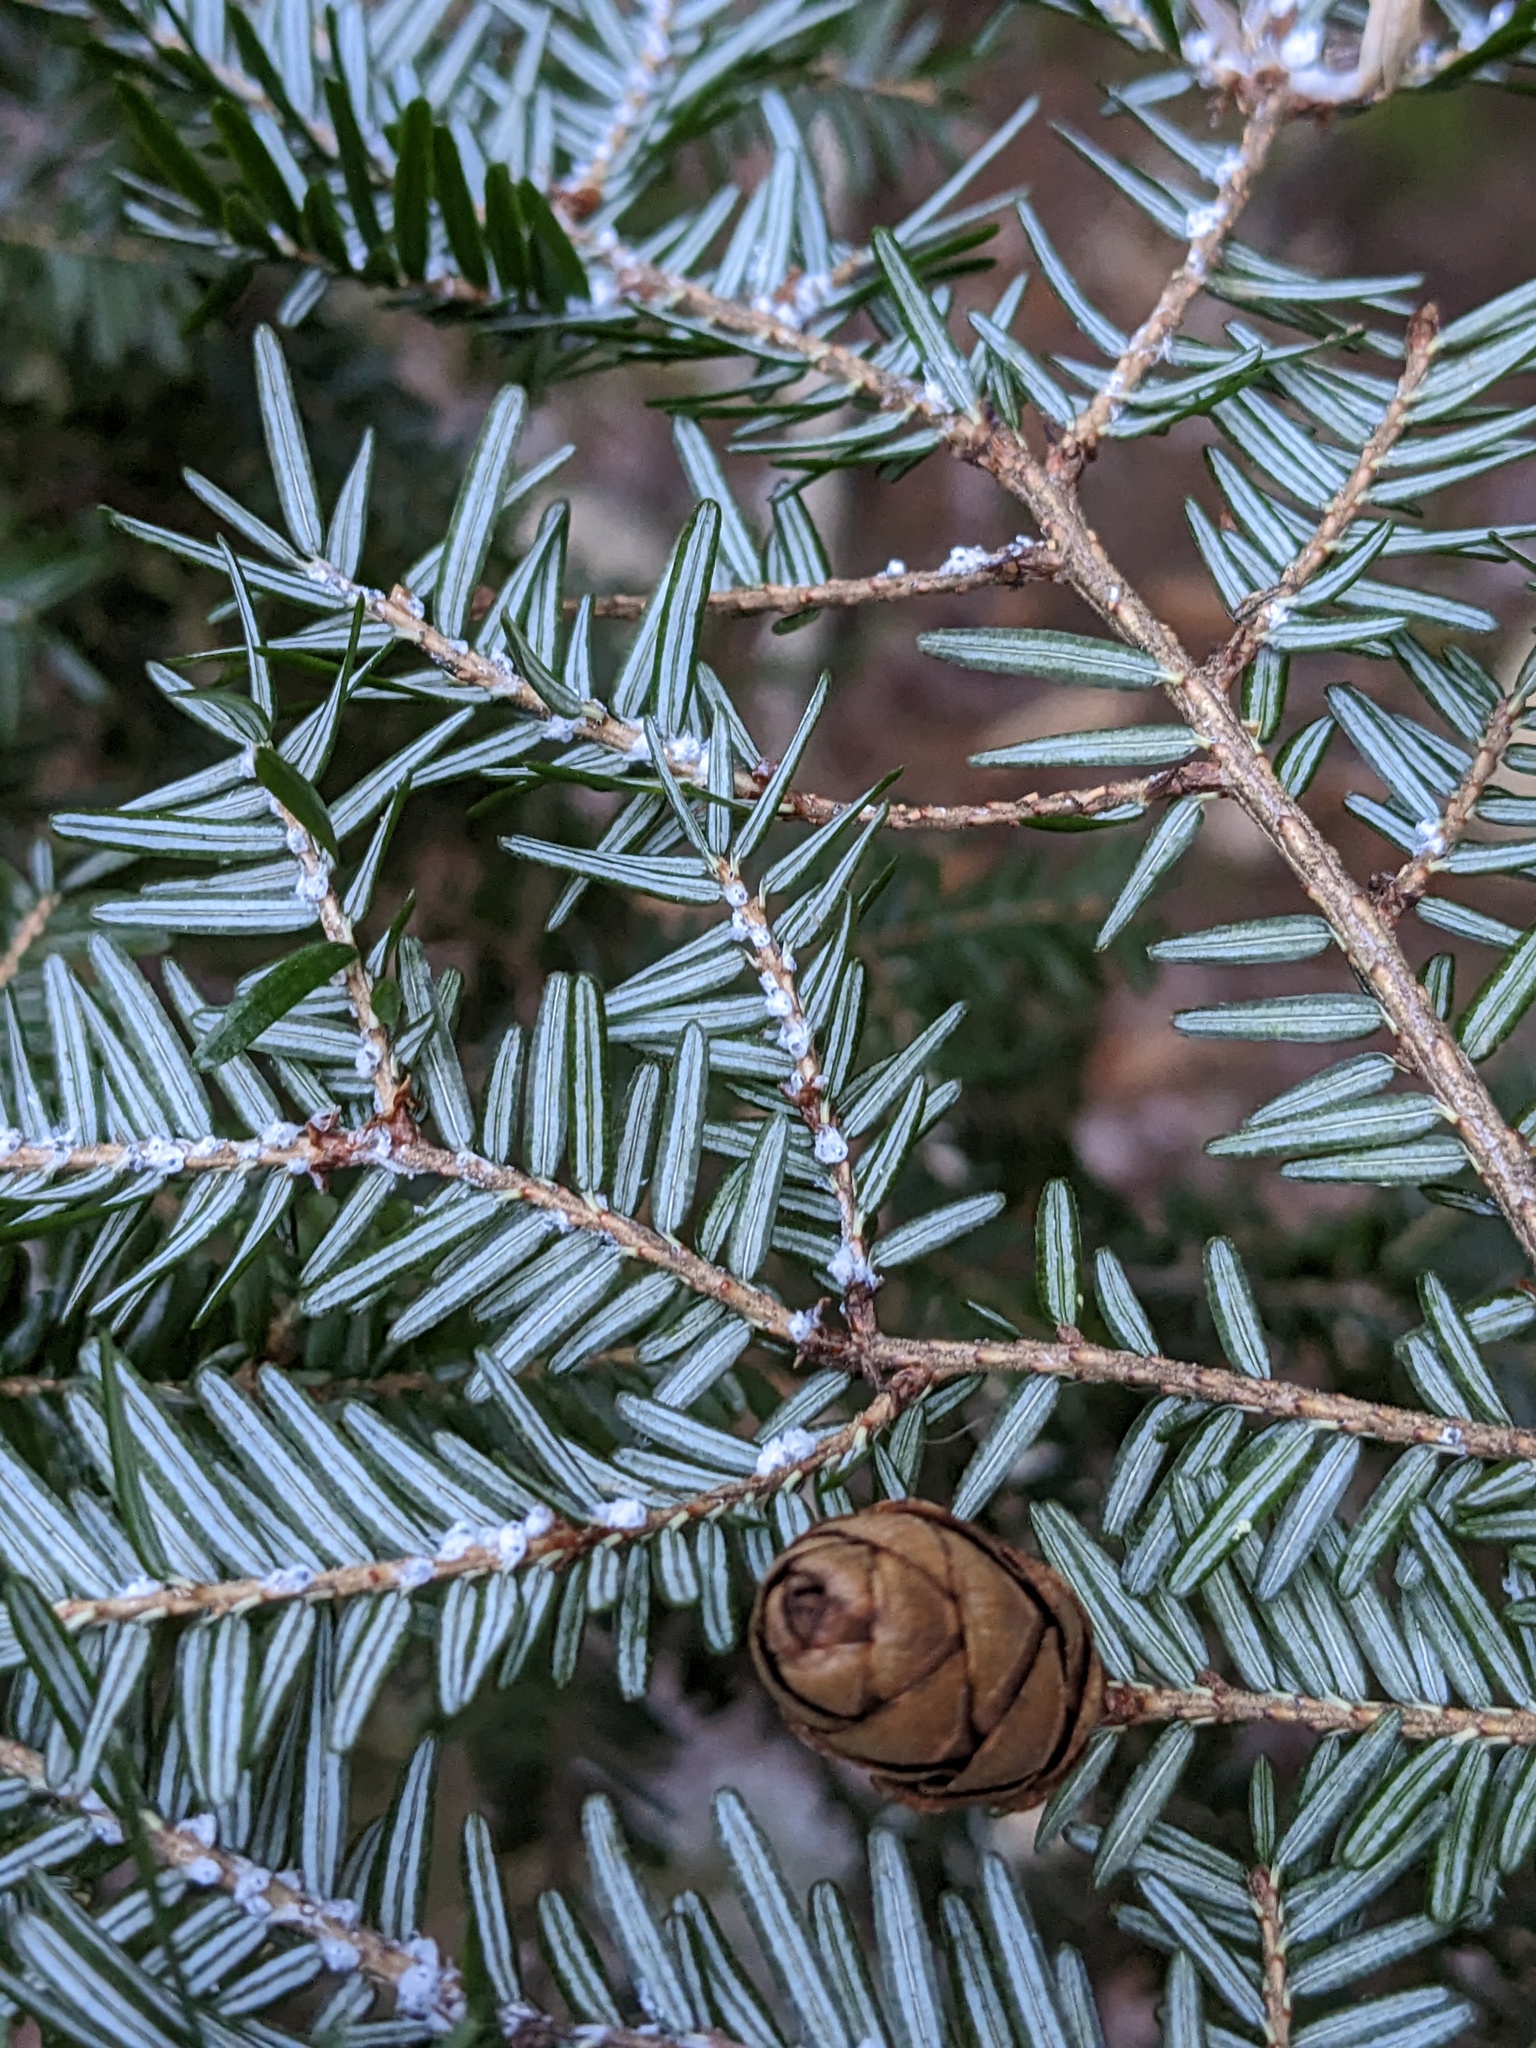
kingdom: Animalia
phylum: Arthropoda
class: Insecta
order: Hemiptera
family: Adelgidae
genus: Adelges
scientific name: Adelges tsugae
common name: Hemlock woolly adelgid
